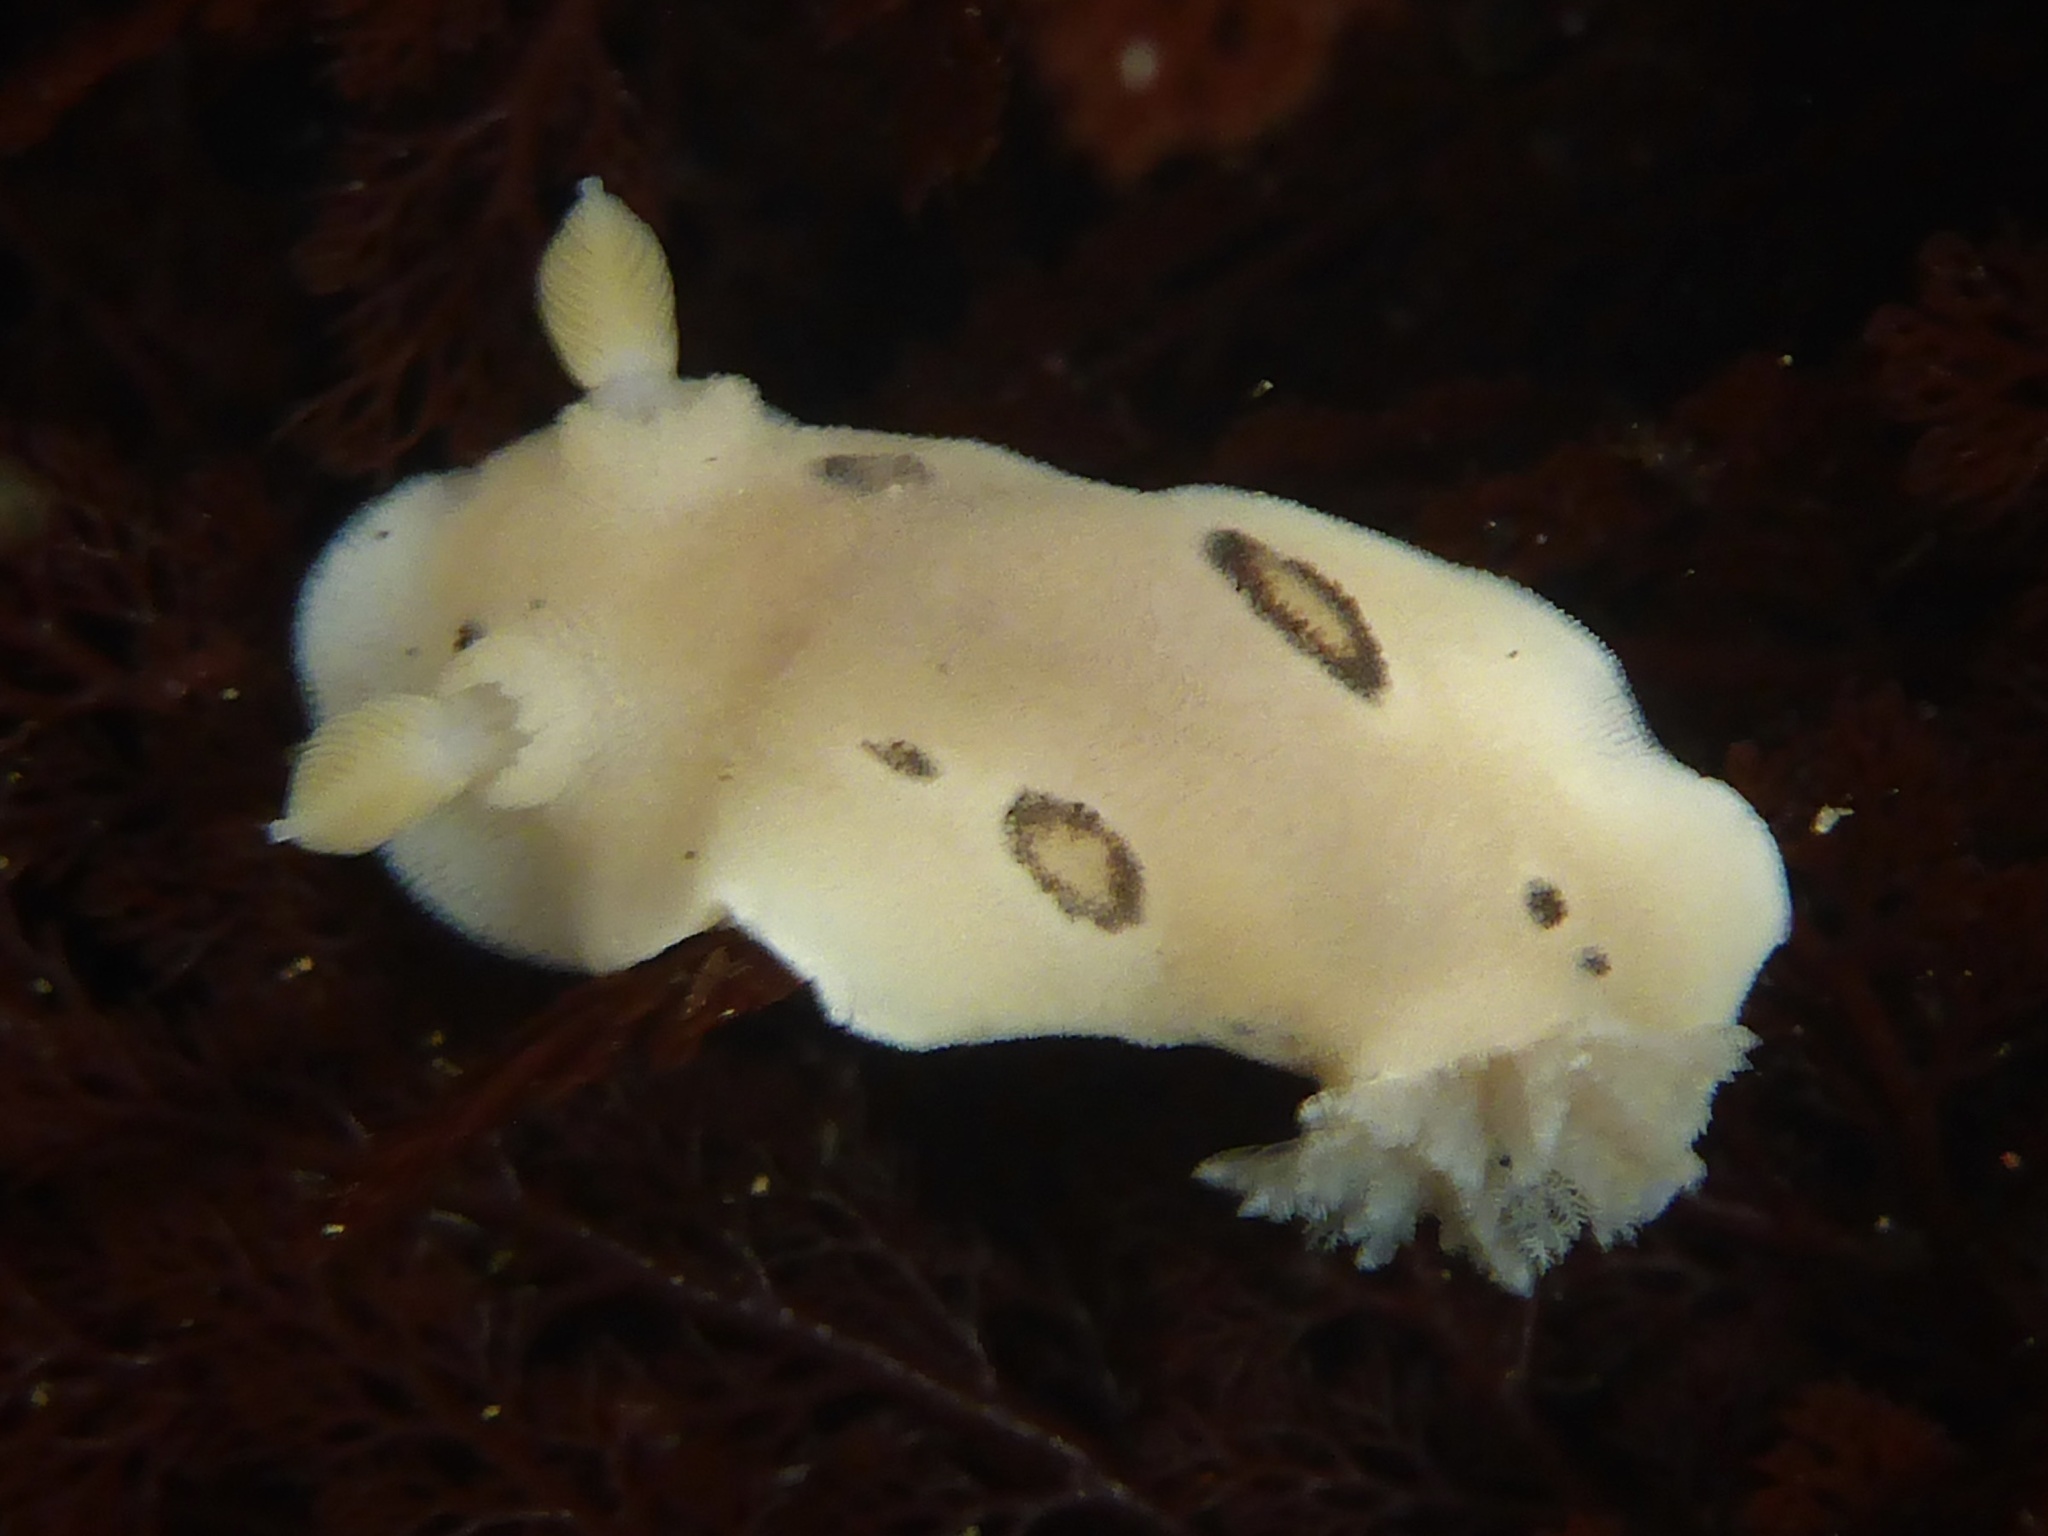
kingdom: Animalia
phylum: Mollusca
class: Gastropoda
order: Nudibranchia
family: Discodorididae
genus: Diaulula
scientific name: Diaulula sandiegensis
